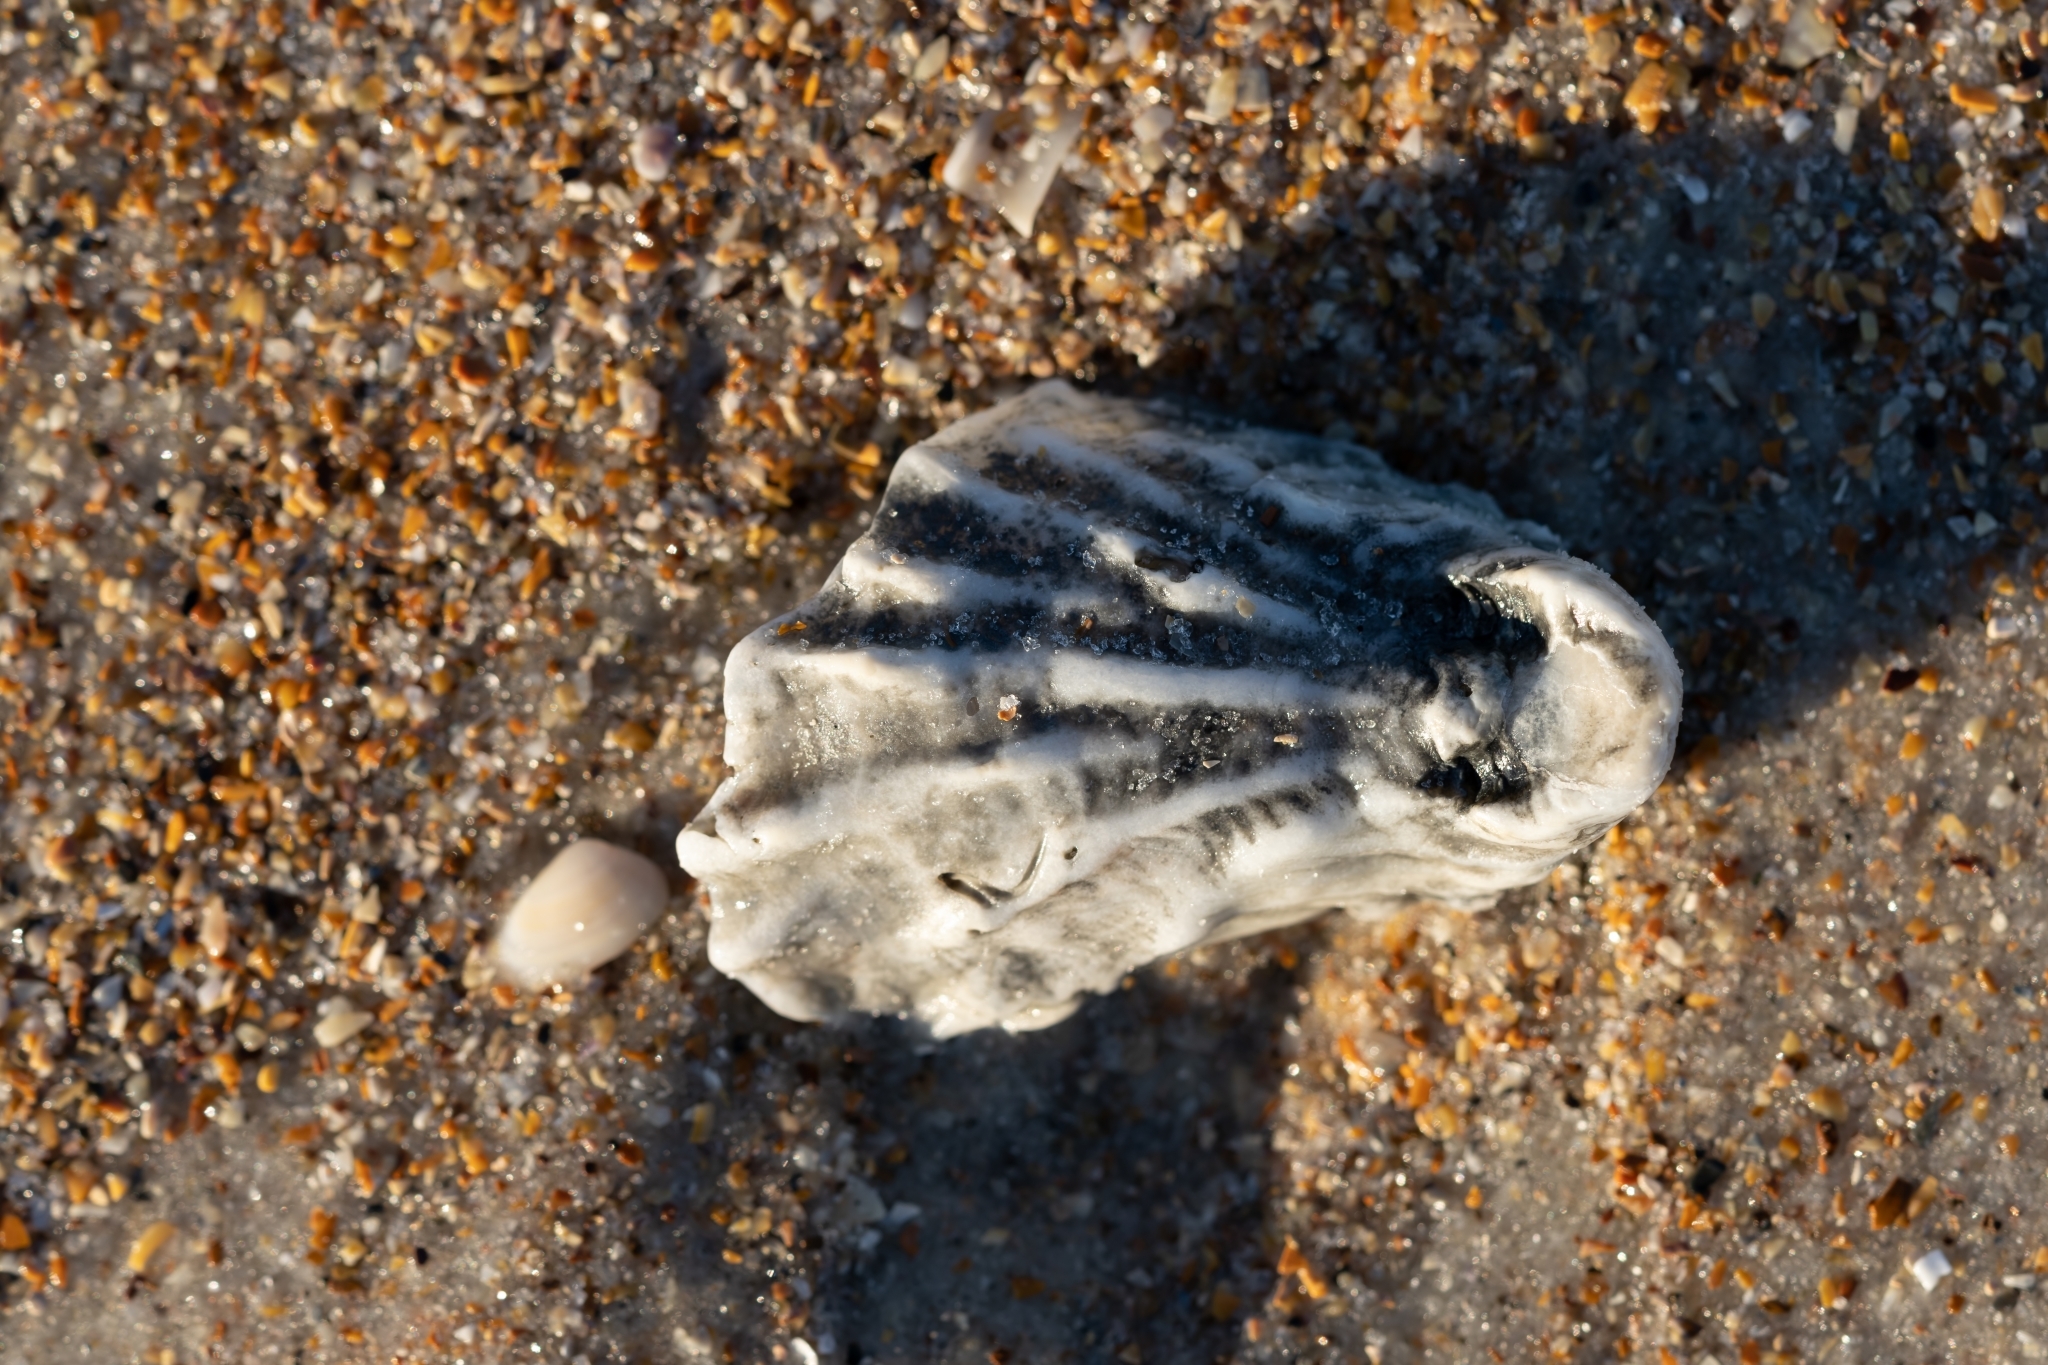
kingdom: Animalia
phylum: Mollusca
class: Bivalvia
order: Ostreida
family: Ostreidae
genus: Crassostrea
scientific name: Crassostrea virginica
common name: American oyster
